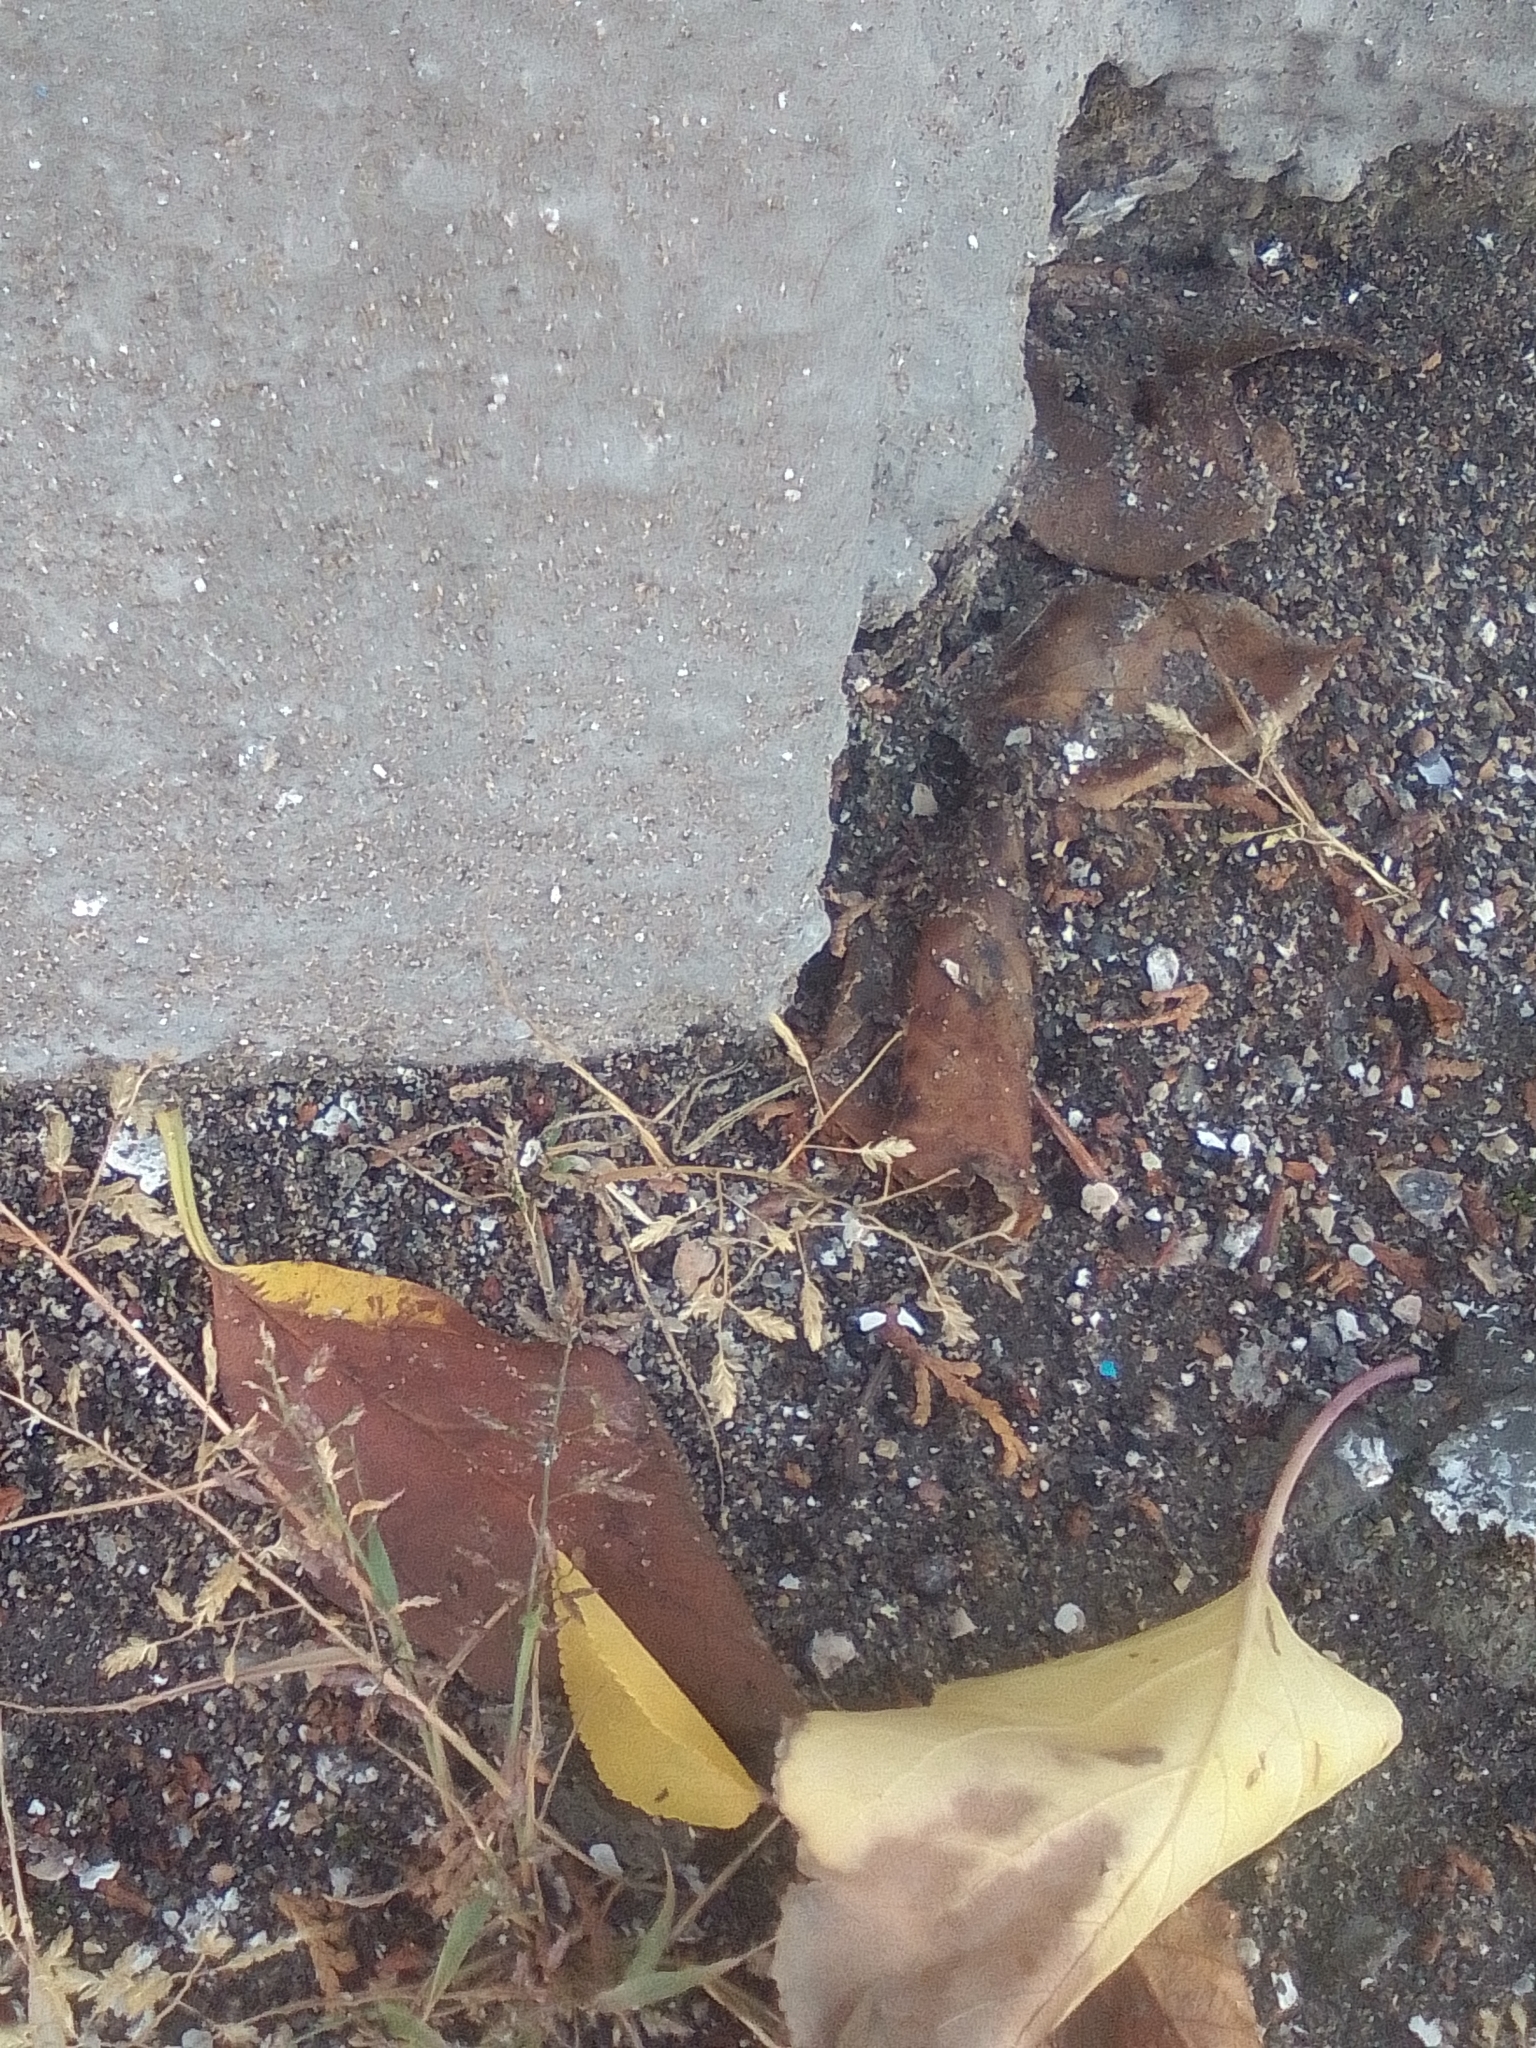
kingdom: Plantae
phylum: Tracheophyta
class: Liliopsida
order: Poales
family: Poaceae
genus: Eragrostis
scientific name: Eragrostis minor
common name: Small love-grass
